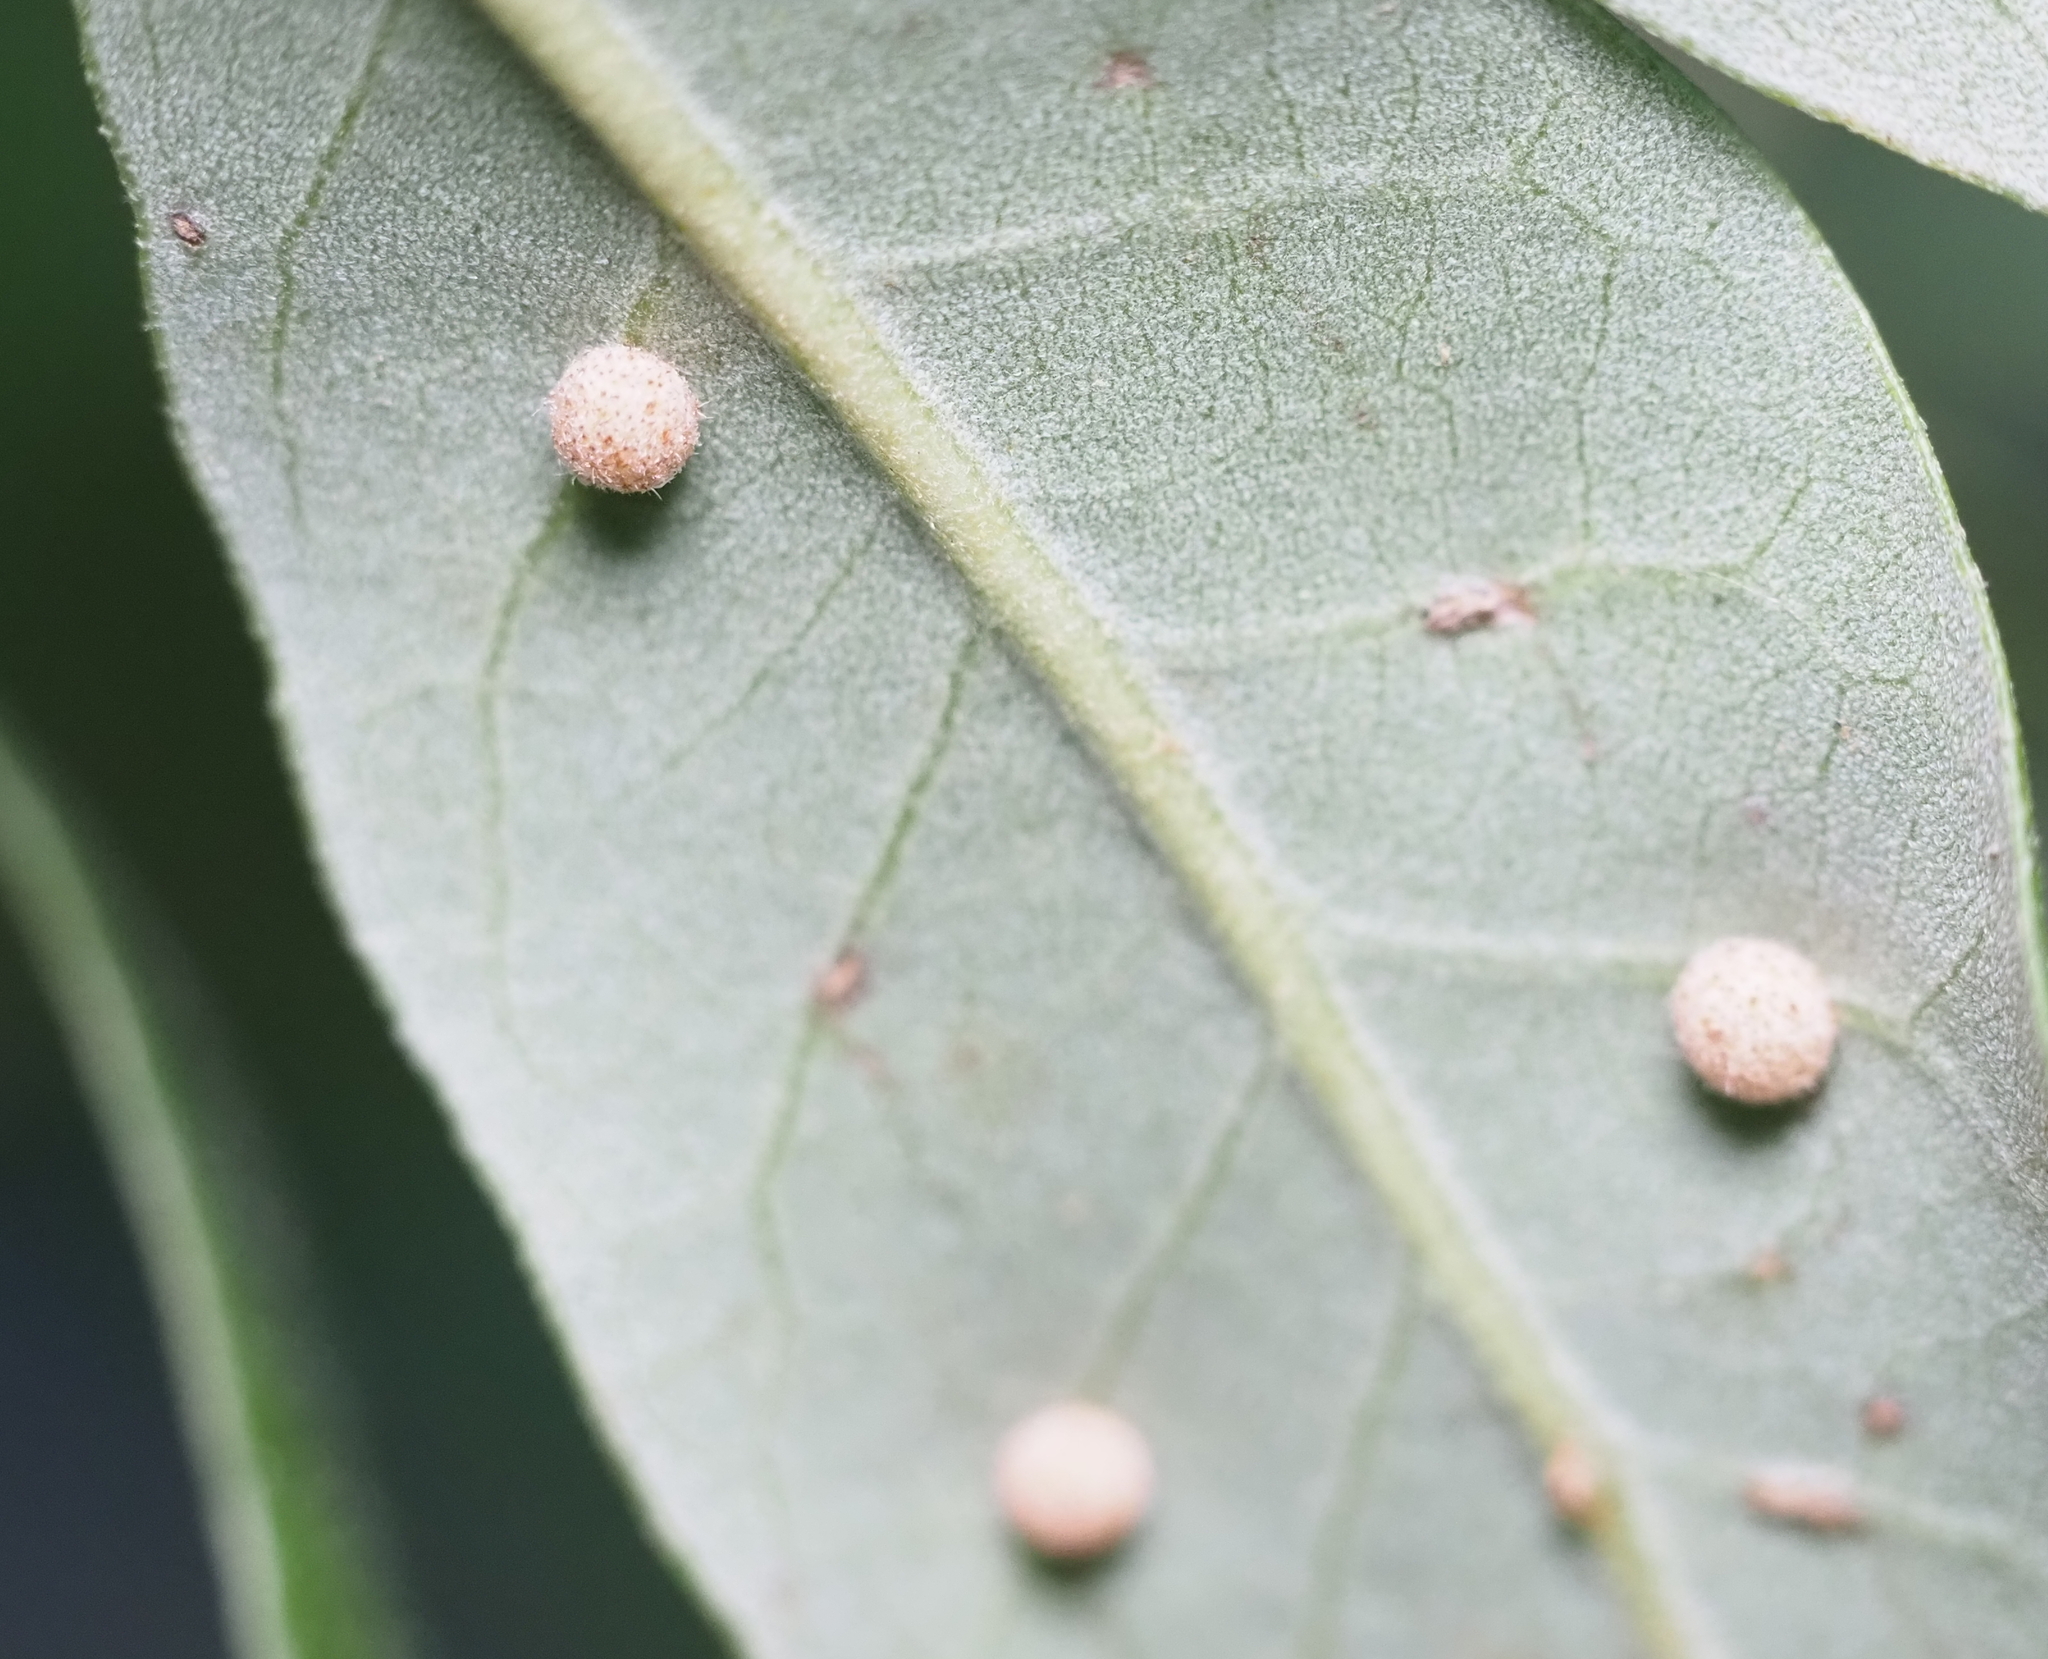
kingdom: Animalia
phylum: Arthropoda
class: Insecta
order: Hymenoptera
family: Cynipidae
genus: Belonocnema
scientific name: Belonocnema kinseyi
